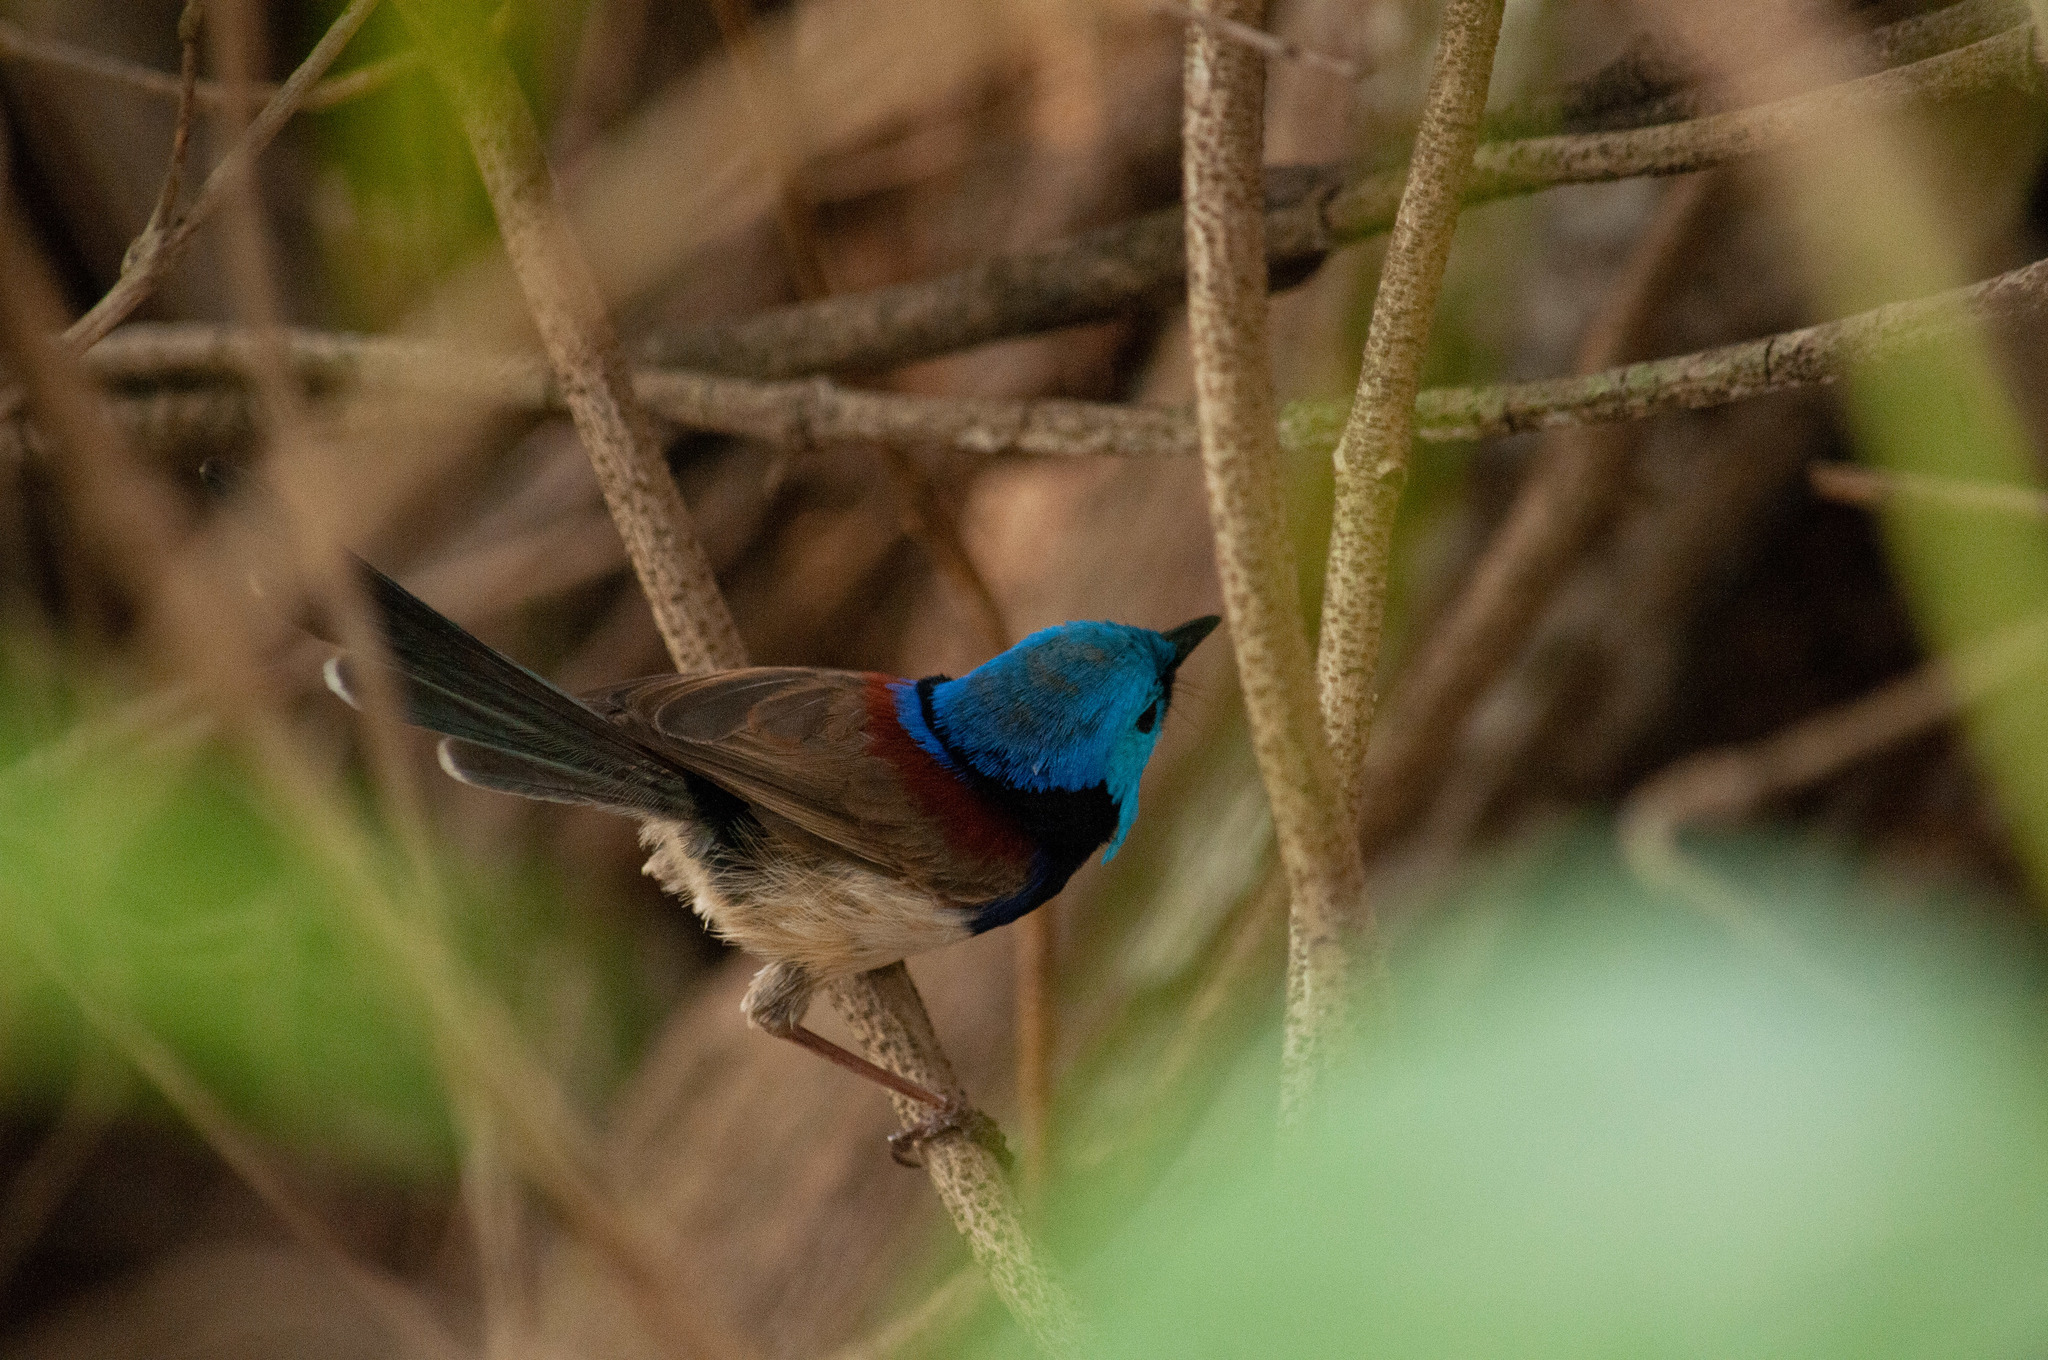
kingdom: Animalia
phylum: Chordata
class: Aves
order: Passeriformes
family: Maluridae
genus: Malurus
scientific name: Malurus lamberti
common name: Variegated fairywren
